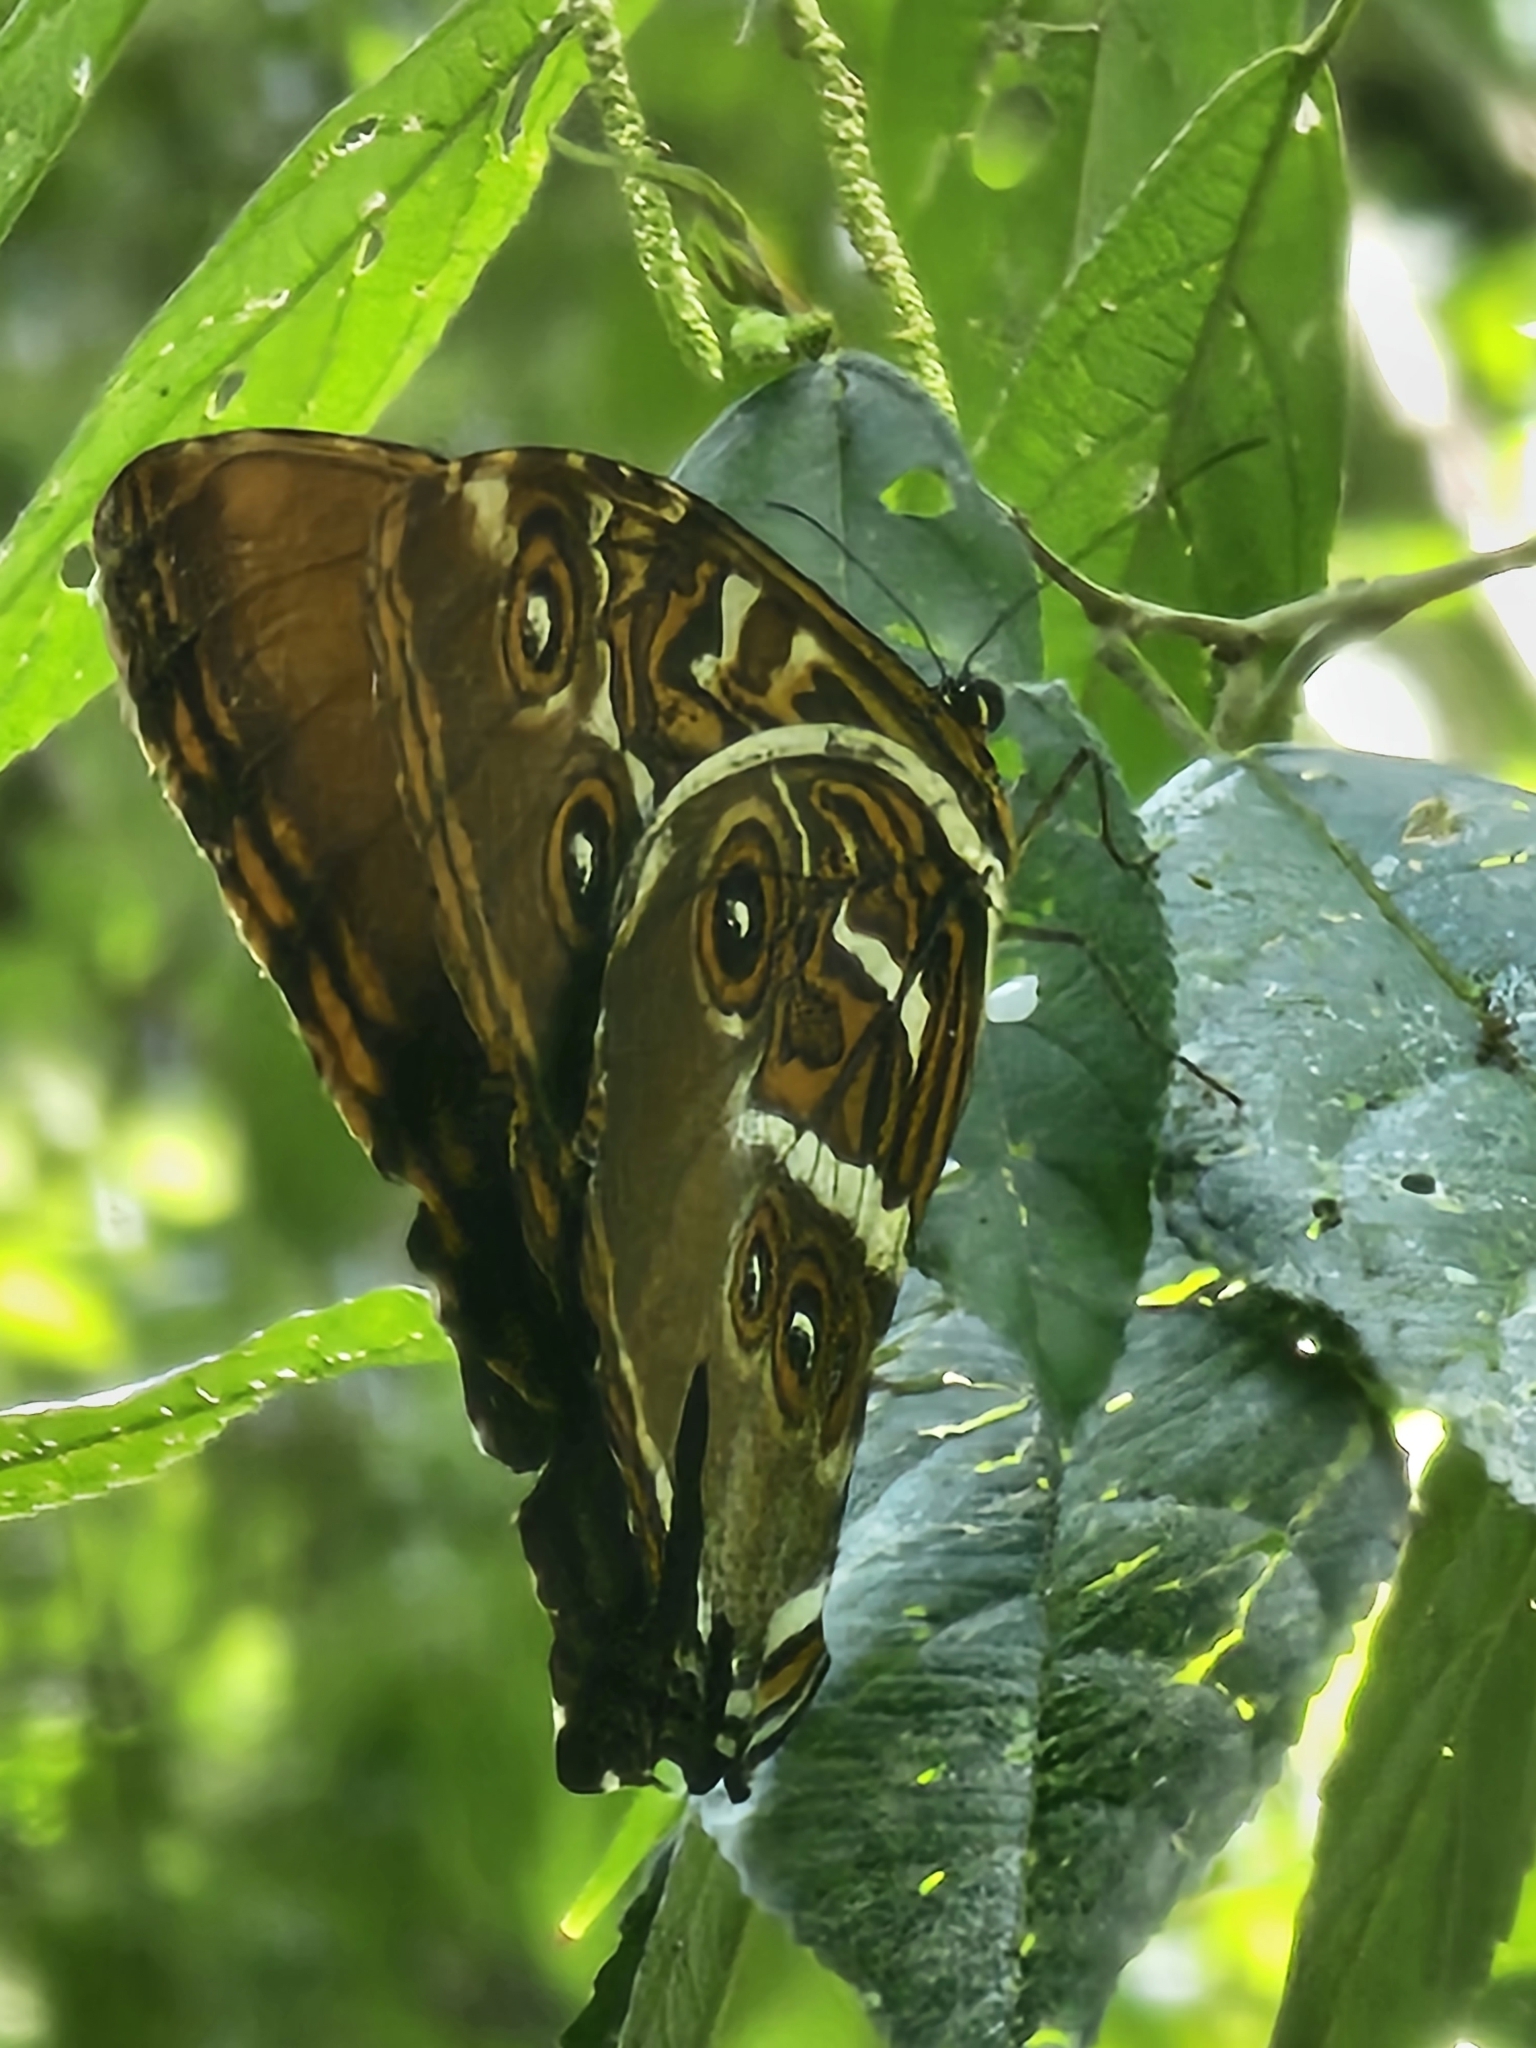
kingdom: Animalia
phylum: Arthropoda
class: Insecta
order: Lepidoptera
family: Nymphalidae
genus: Morpho
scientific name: Morpho hecuba
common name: Sunset morpho
